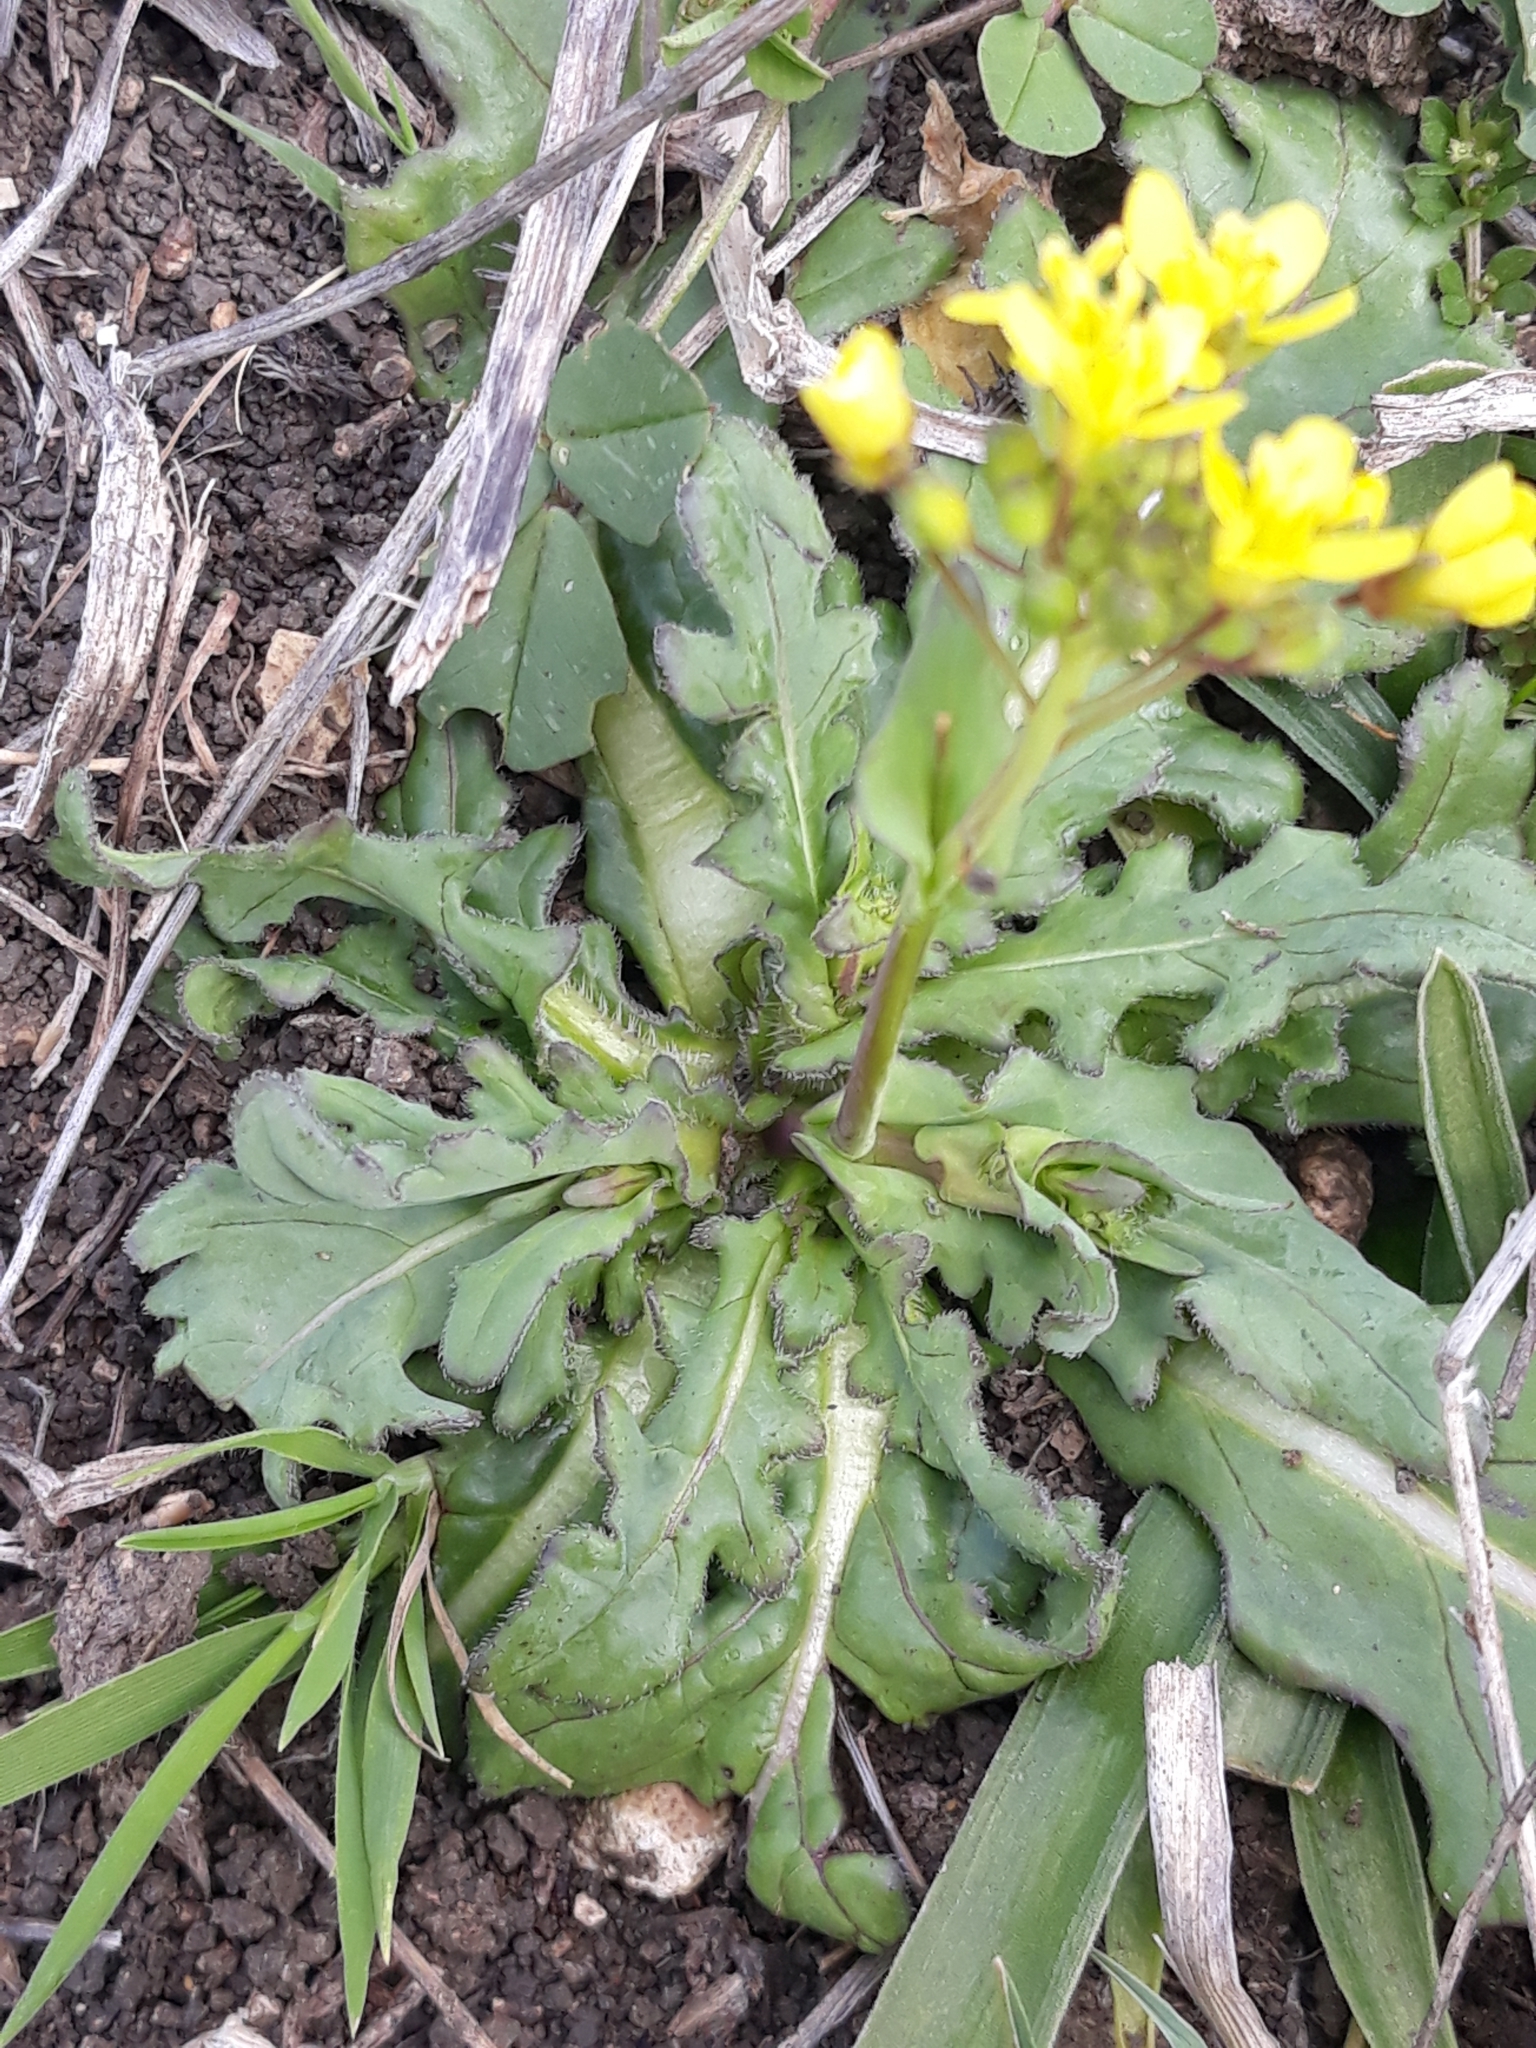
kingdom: Plantae
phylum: Tracheophyta
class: Magnoliopsida
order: Brassicales
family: Brassicaceae
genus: Brassica
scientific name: Brassica rapa
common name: Field mustard
